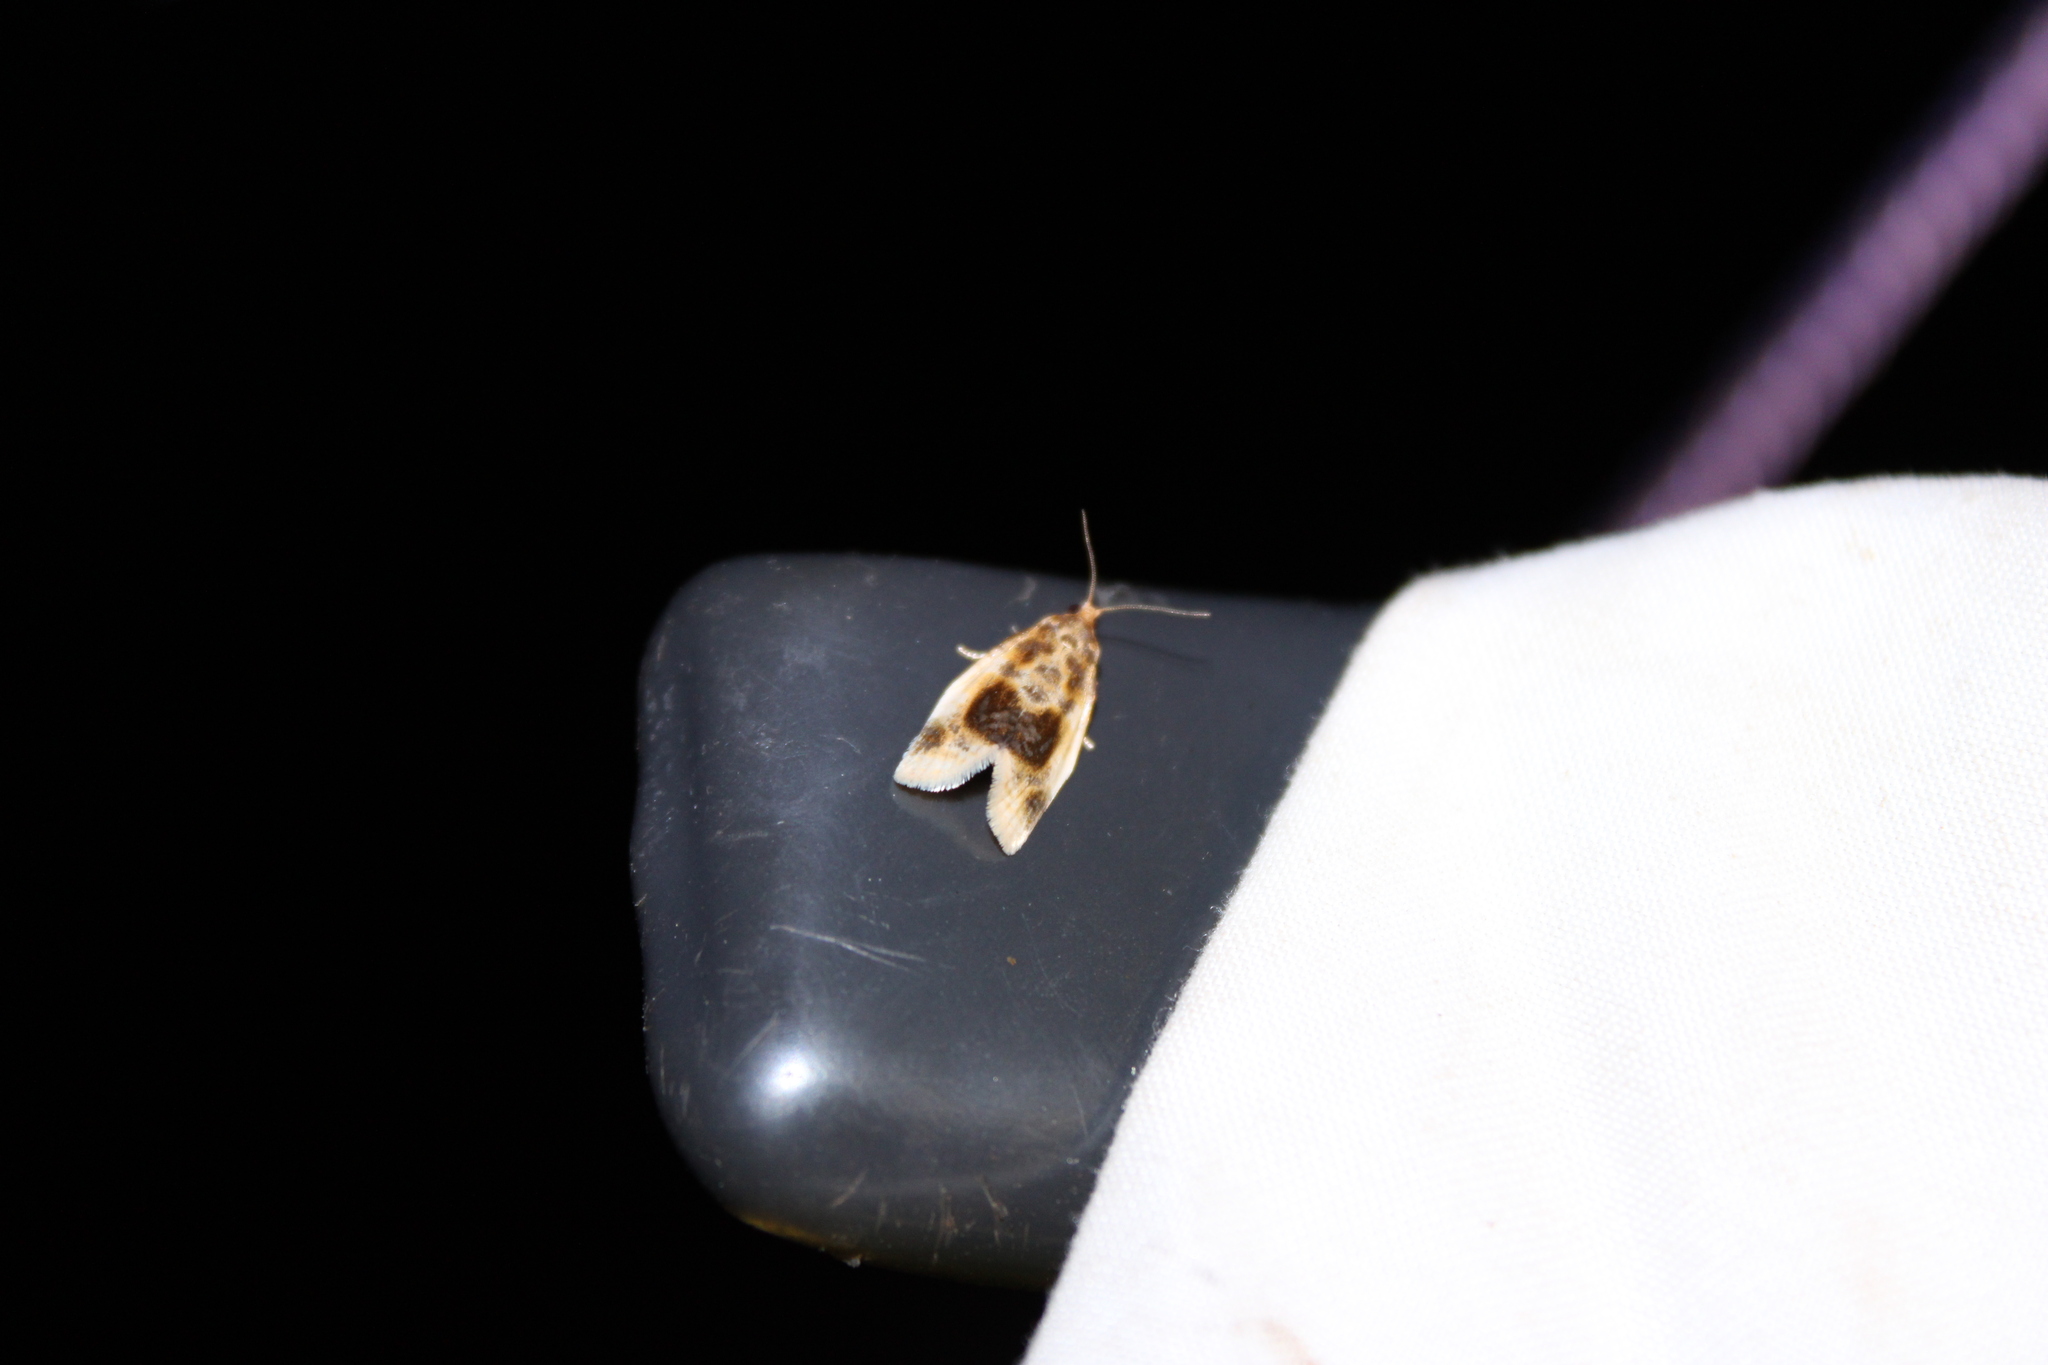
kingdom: Animalia
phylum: Arthropoda
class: Insecta
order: Lepidoptera
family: Tortricidae
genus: Clepsis
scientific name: Clepsis melaleucanus
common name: American apple tortrix
